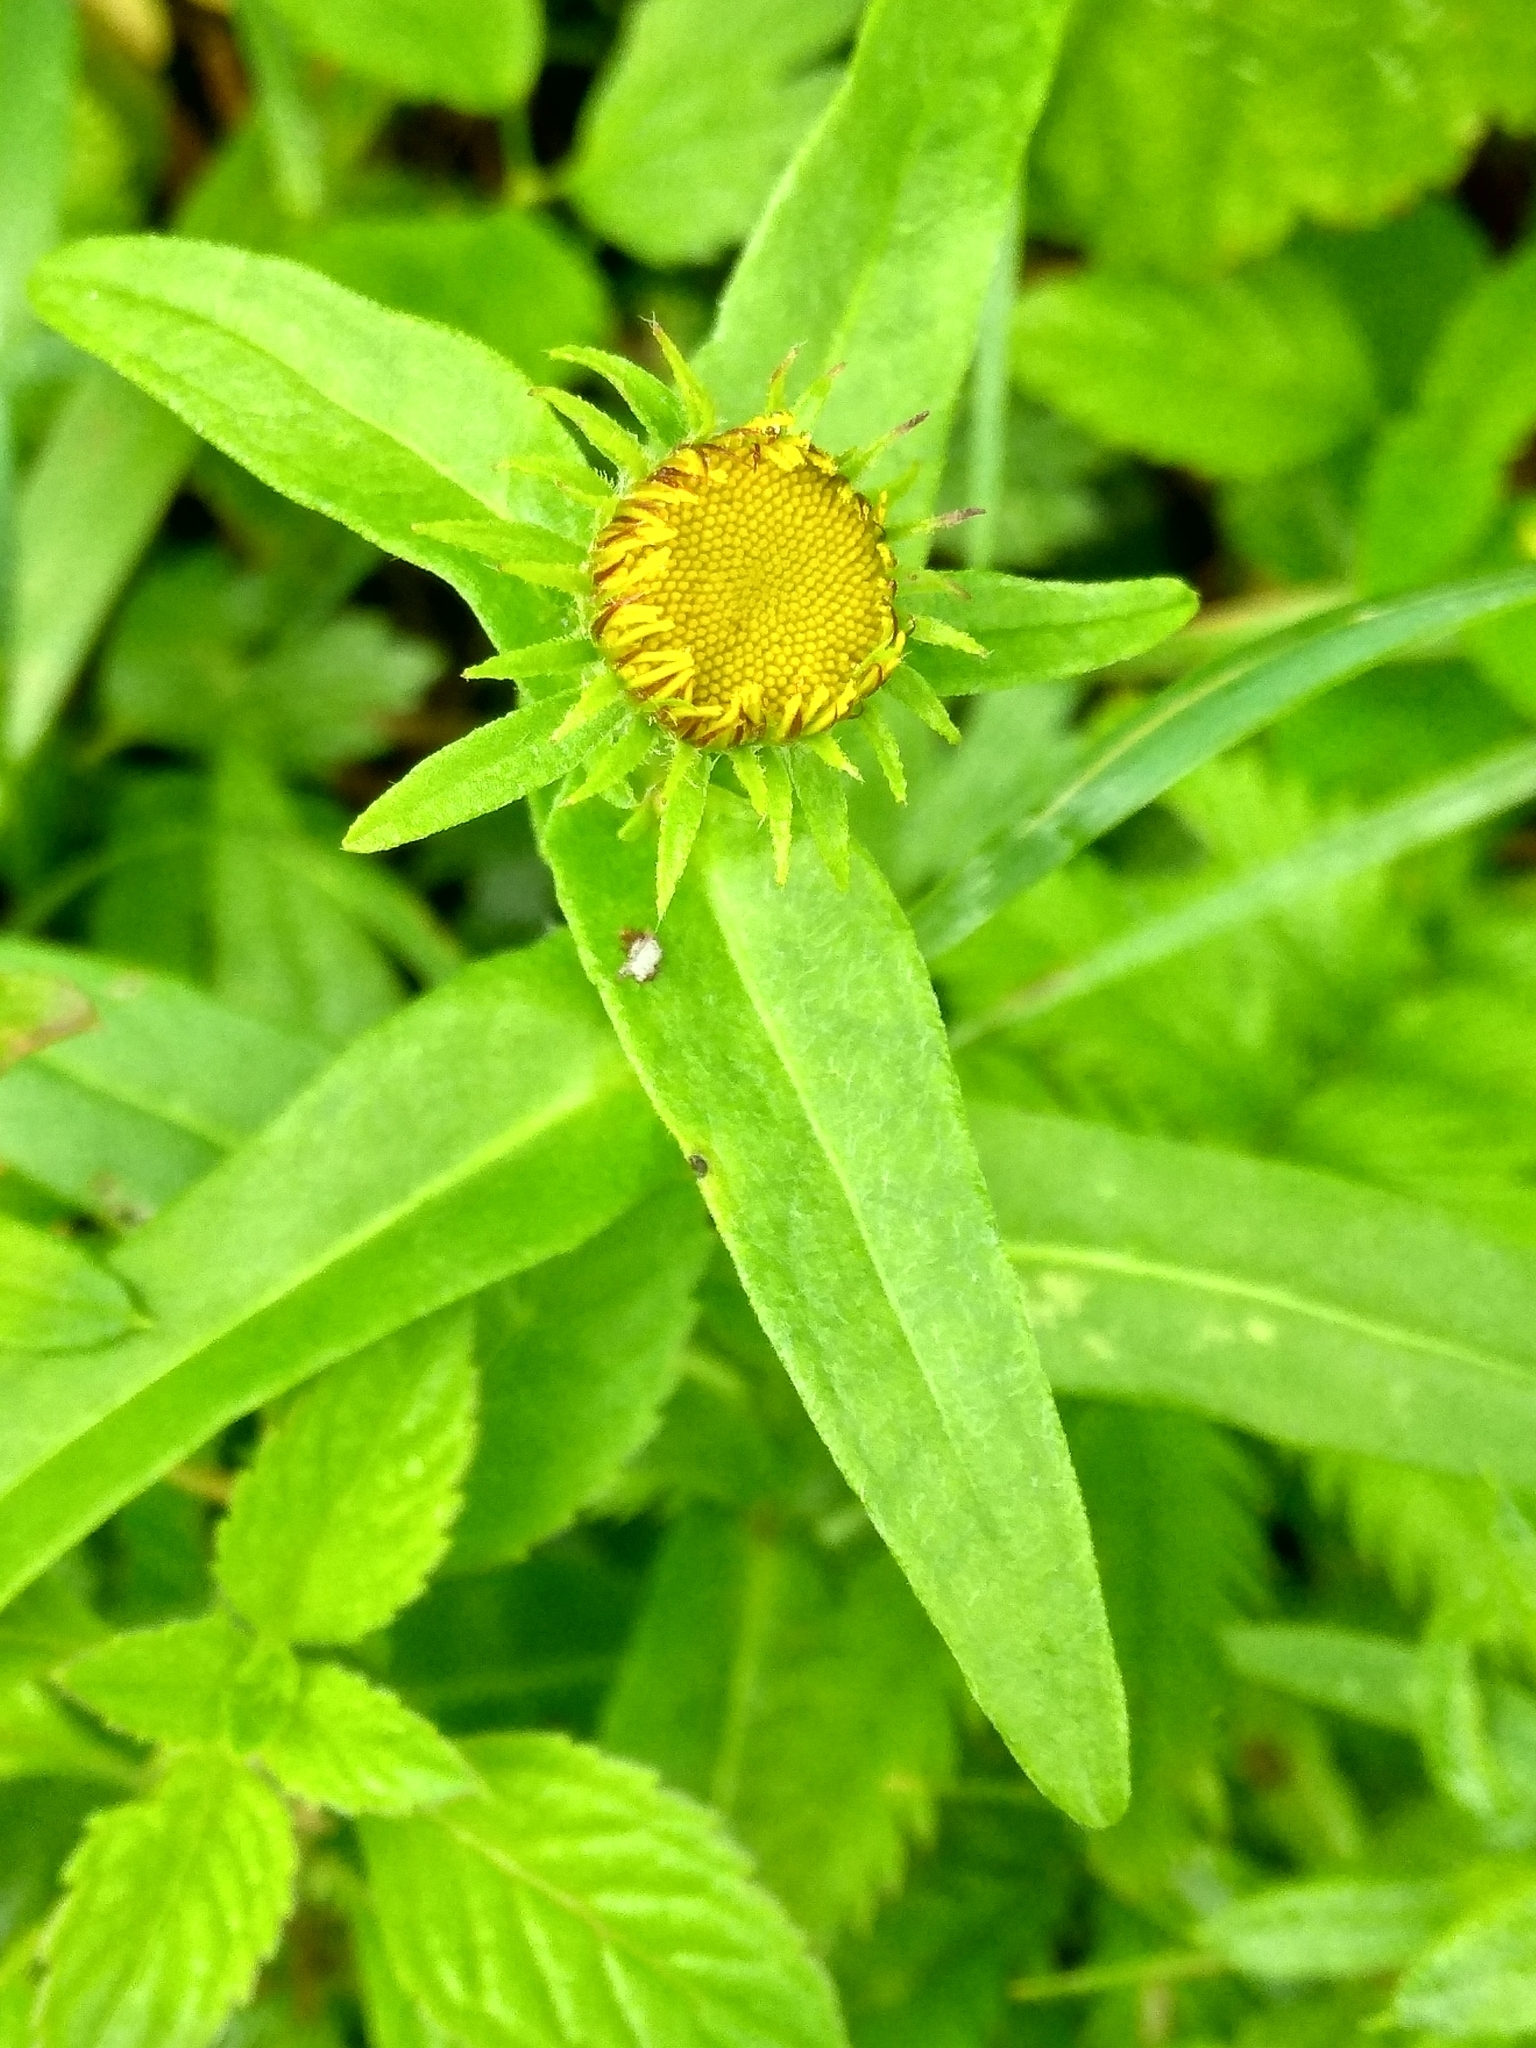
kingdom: Plantae
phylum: Tracheophyta
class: Magnoliopsida
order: Asterales
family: Asteraceae
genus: Pentanema
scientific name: Pentanema britannicum
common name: British elecampane
